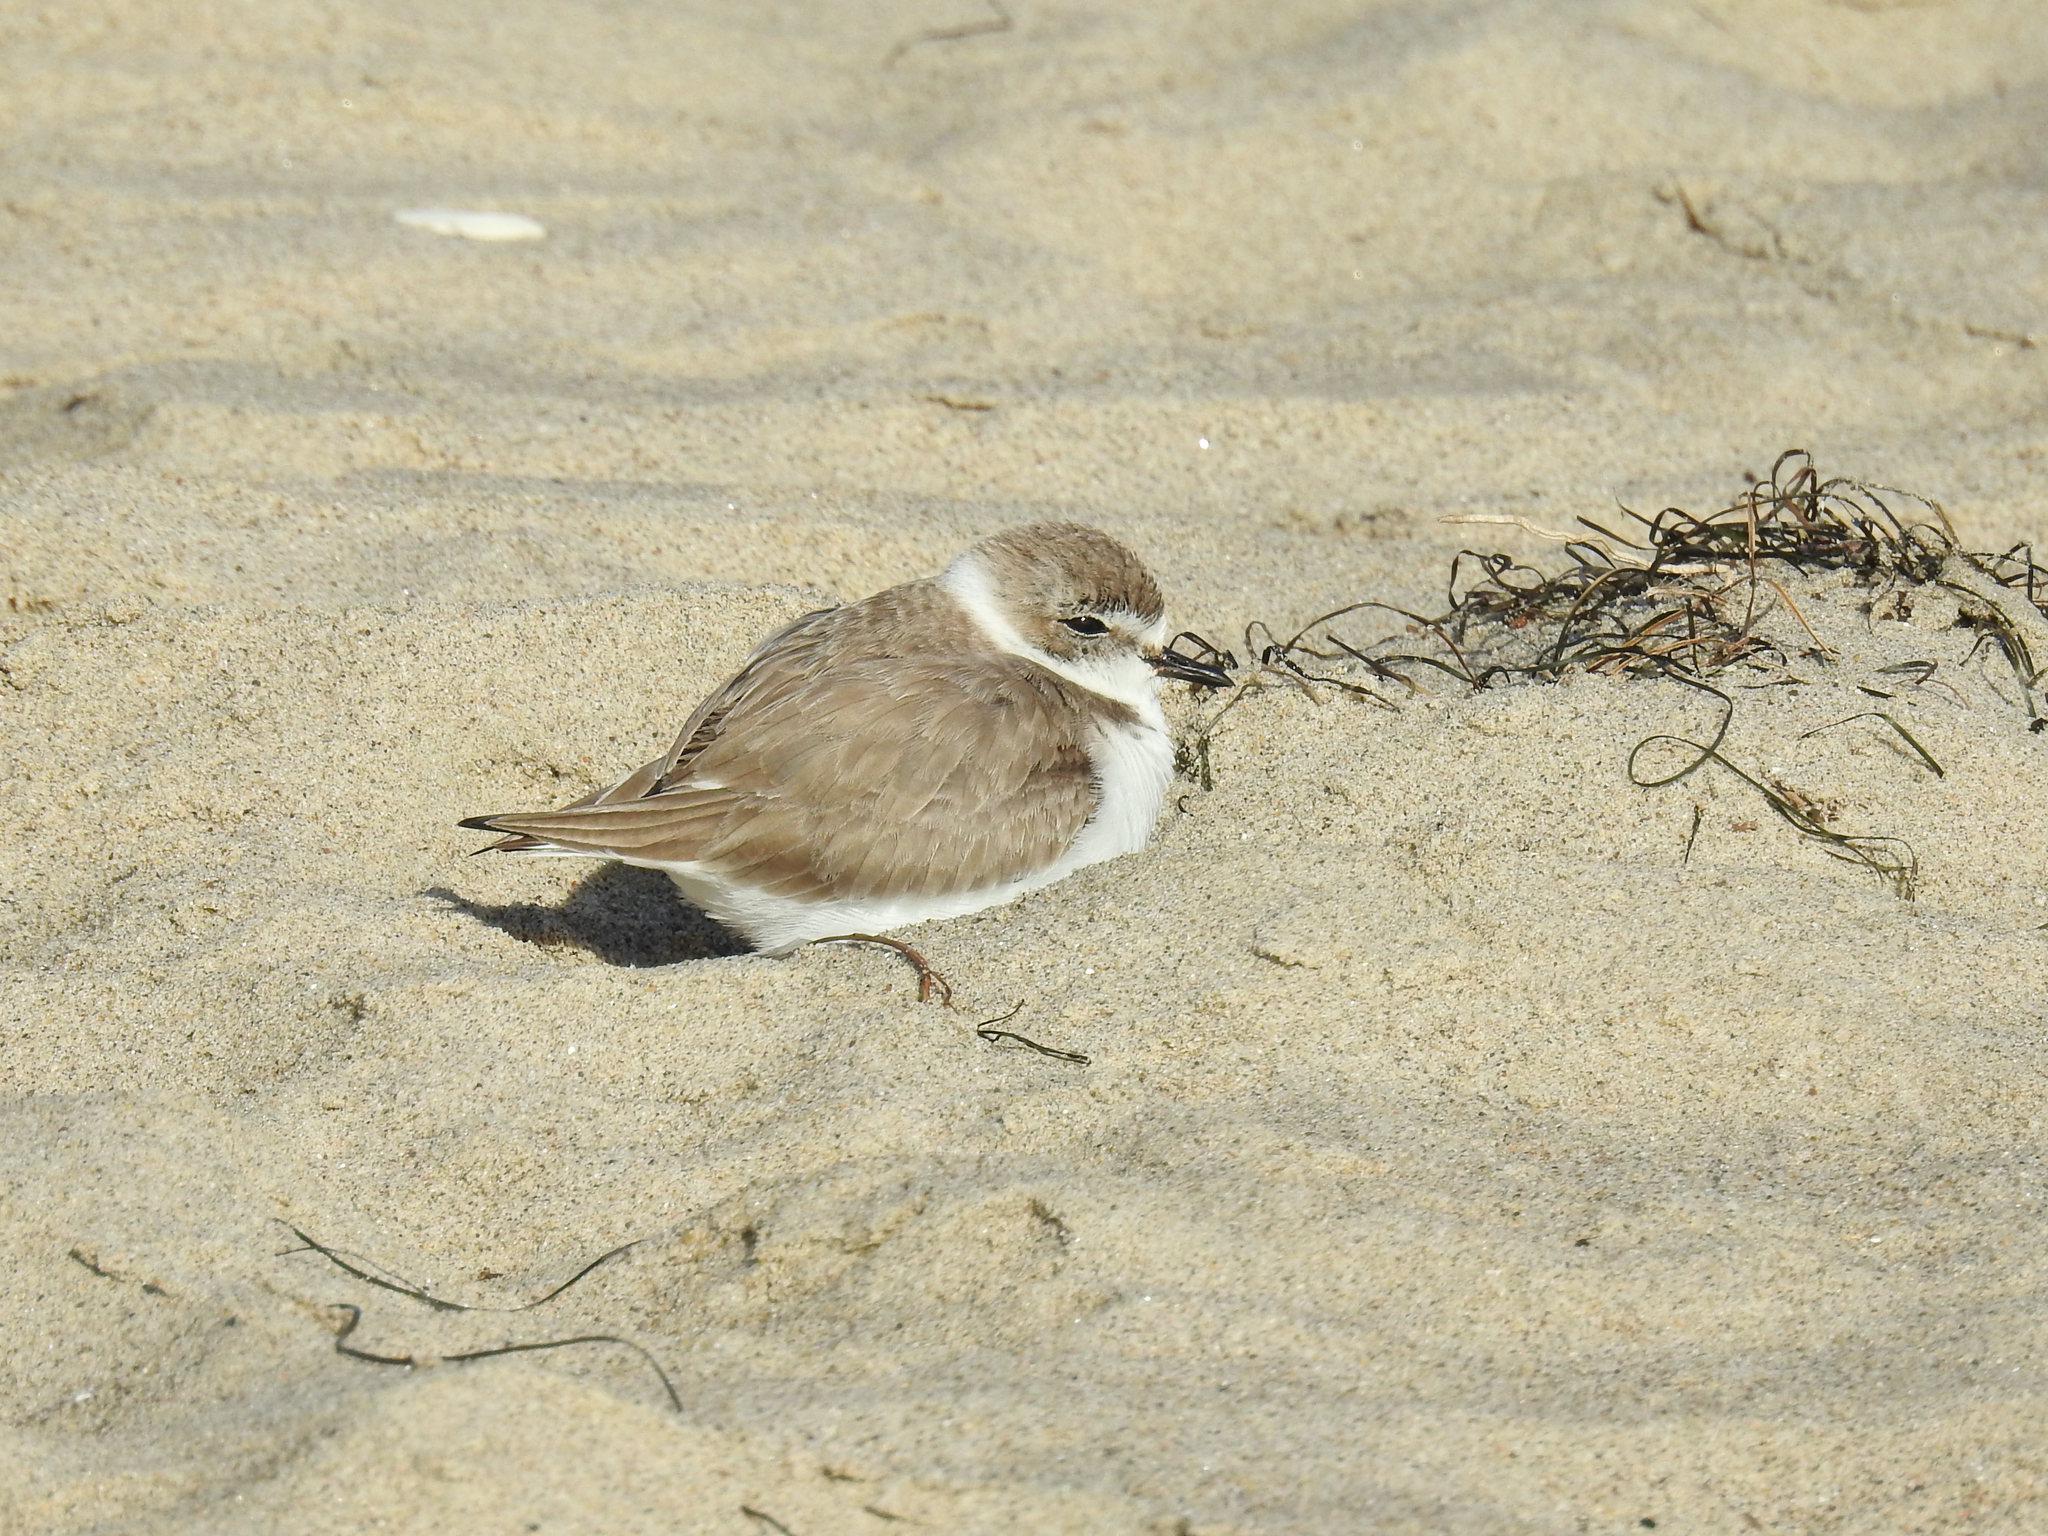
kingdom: Animalia
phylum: Chordata
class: Aves
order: Charadriiformes
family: Charadriidae
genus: Anarhynchus
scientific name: Anarhynchus
